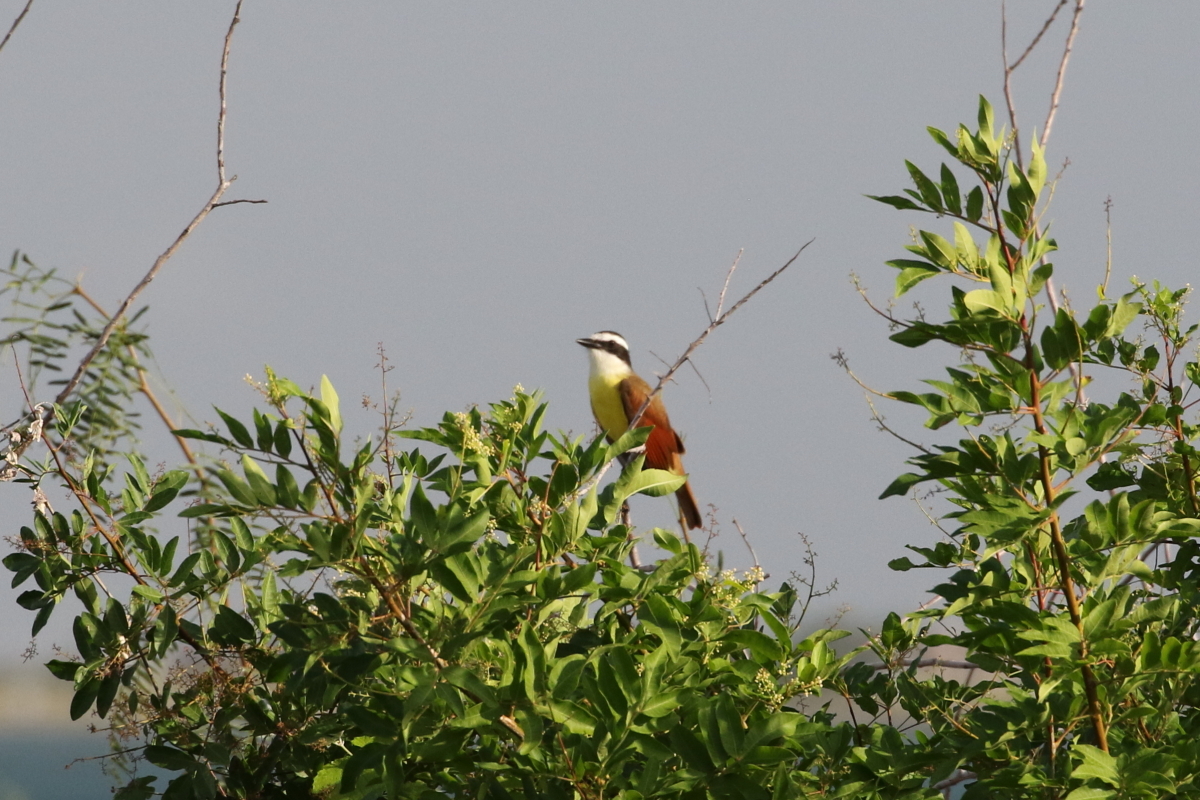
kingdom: Animalia
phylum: Chordata
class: Aves
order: Passeriformes
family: Tyrannidae
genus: Pitangus
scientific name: Pitangus sulphuratus
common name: Great kiskadee
